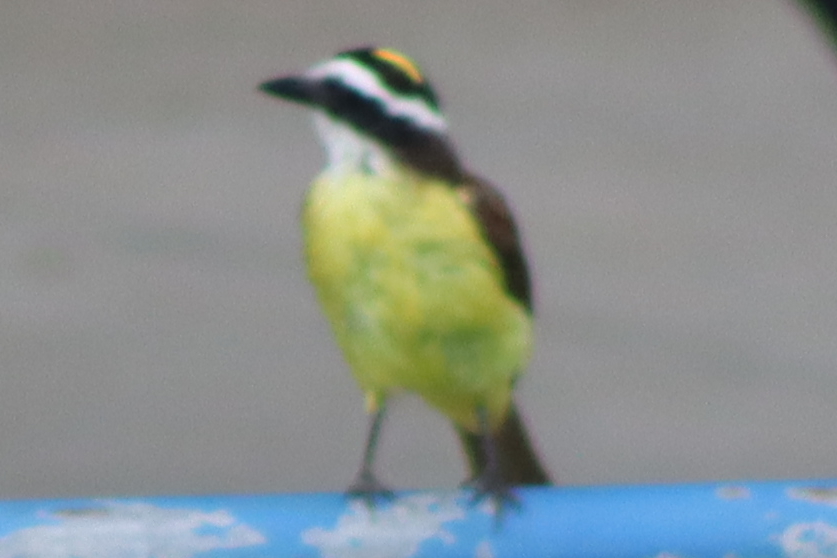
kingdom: Animalia
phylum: Chordata
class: Aves
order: Passeriformes
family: Tyrannidae
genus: Pitangus
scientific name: Pitangus sulphuratus
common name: Great kiskadee
